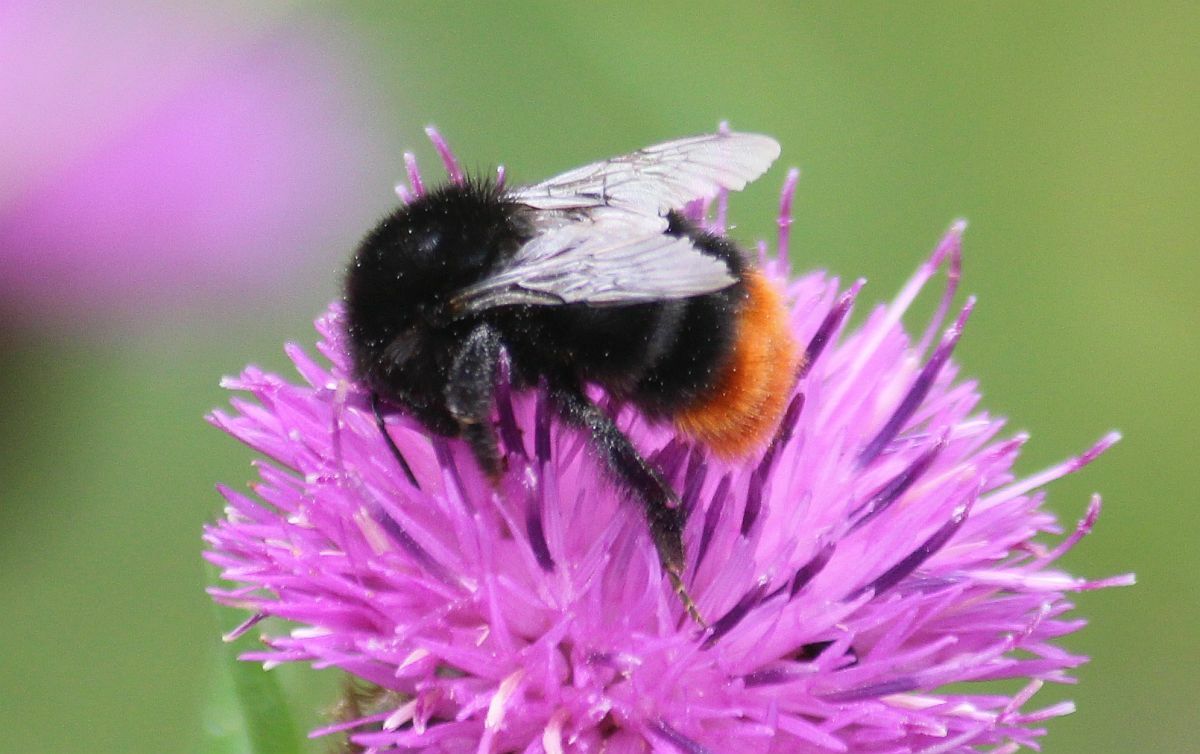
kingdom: Animalia
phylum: Arthropoda
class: Insecta
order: Hymenoptera
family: Apidae
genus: Bombus
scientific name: Bombus lapidarius
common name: Large red-tailed humble-bee
